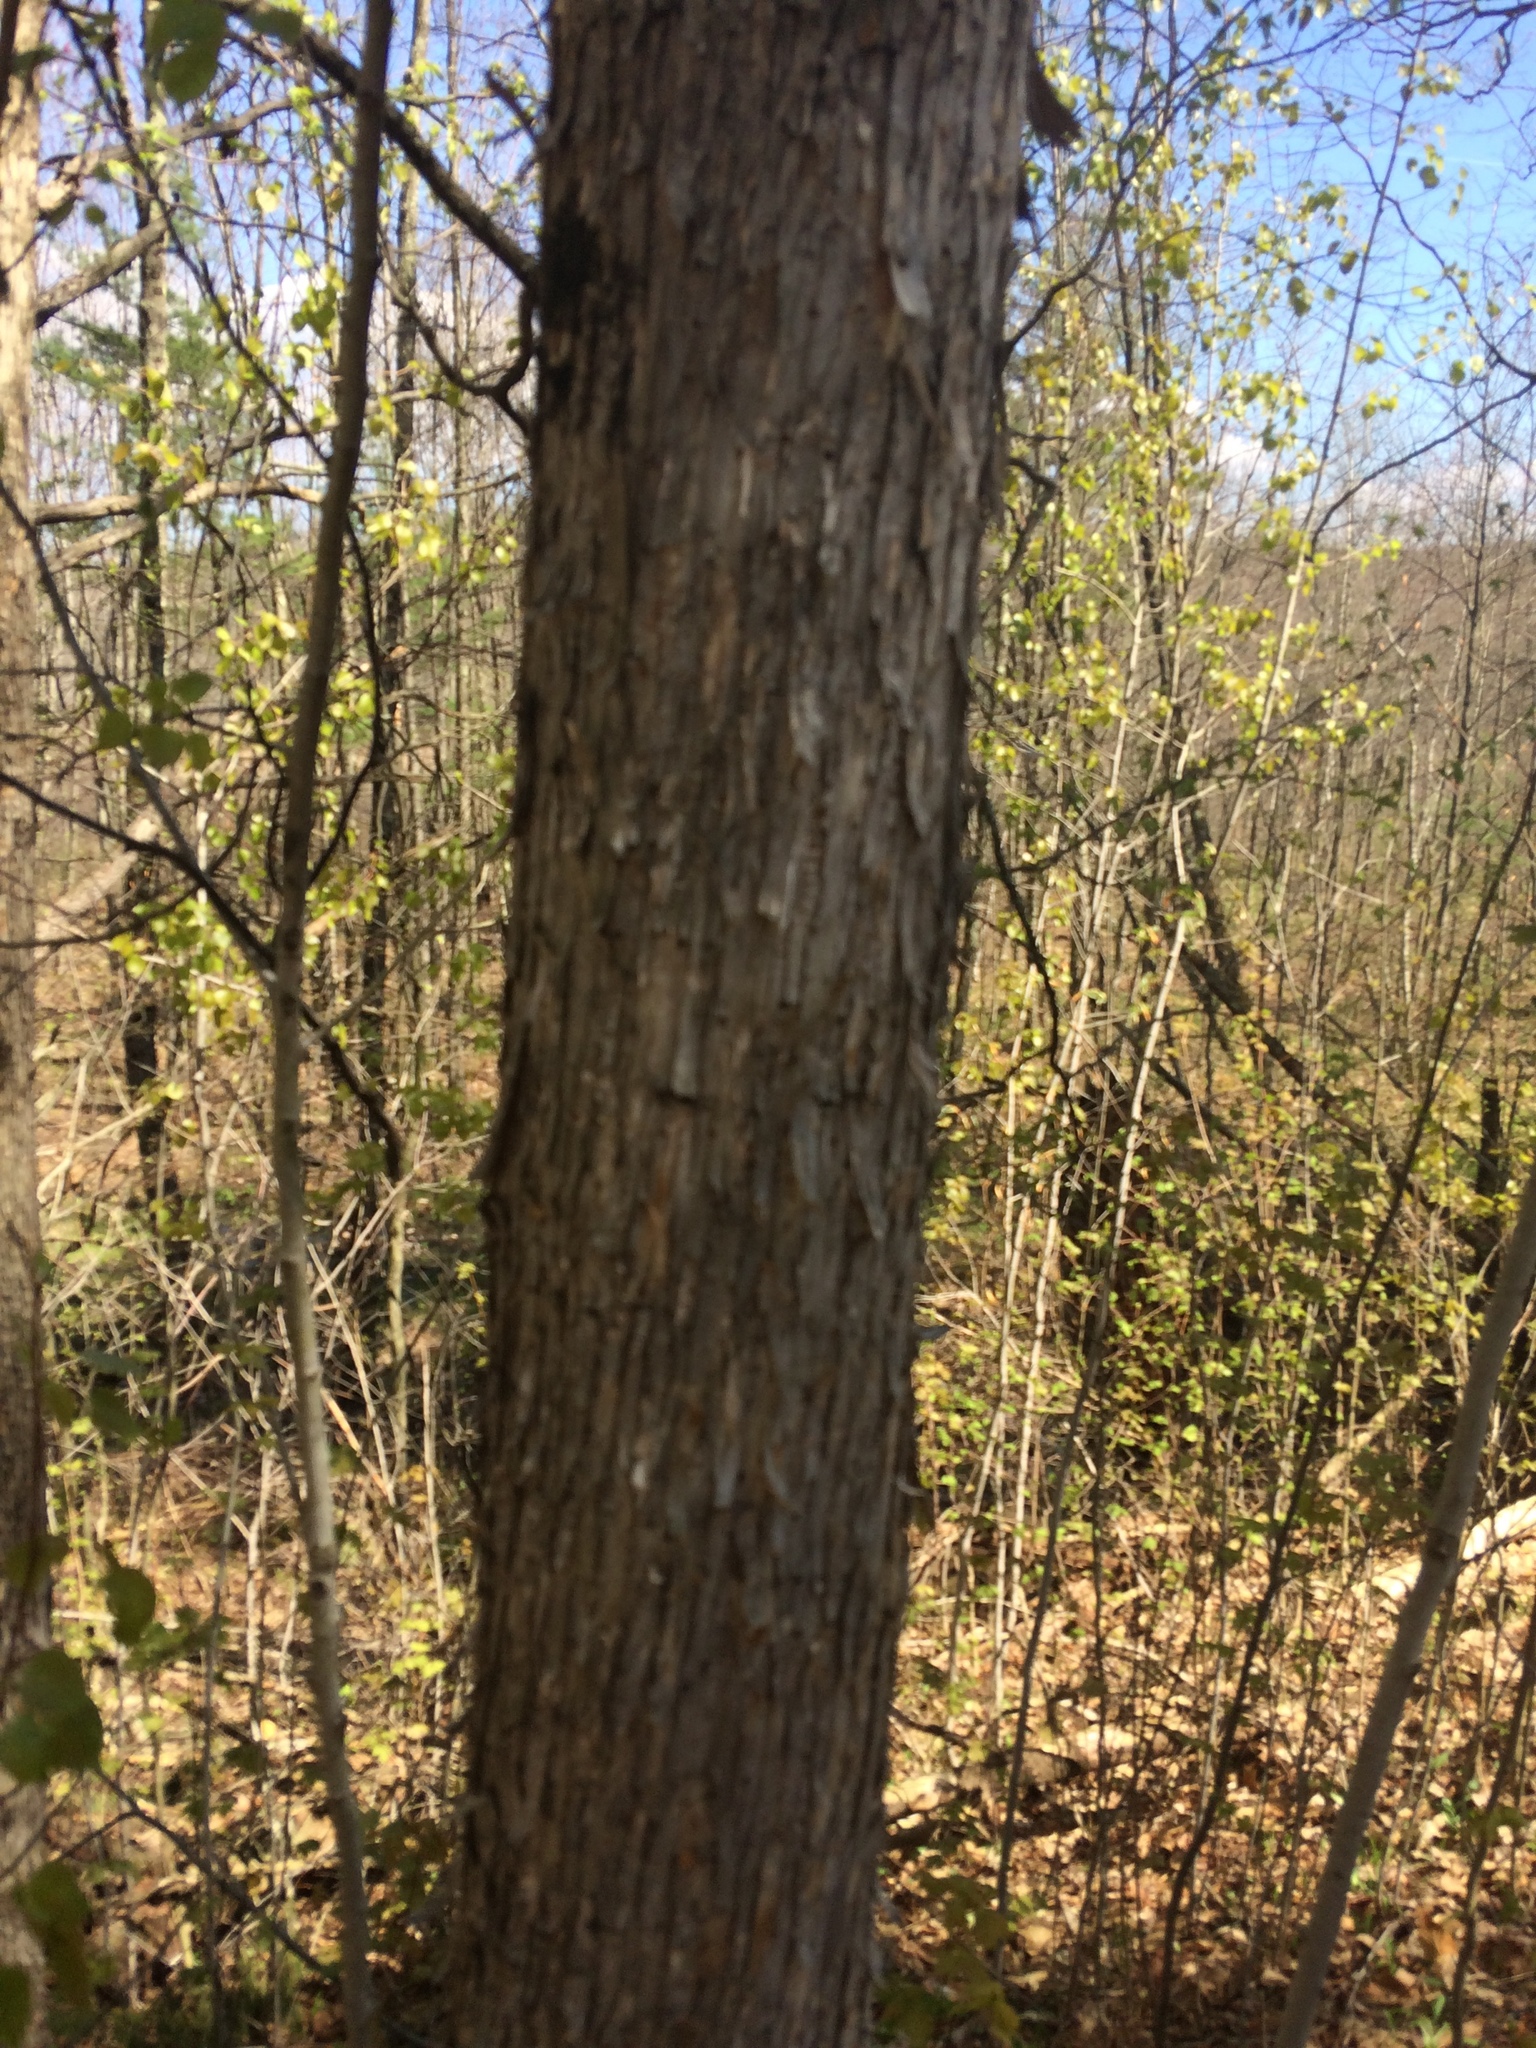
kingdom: Plantae
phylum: Tracheophyta
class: Magnoliopsida
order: Fagales
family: Betulaceae
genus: Ostrya
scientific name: Ostrya virginiana
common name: Ironwood
